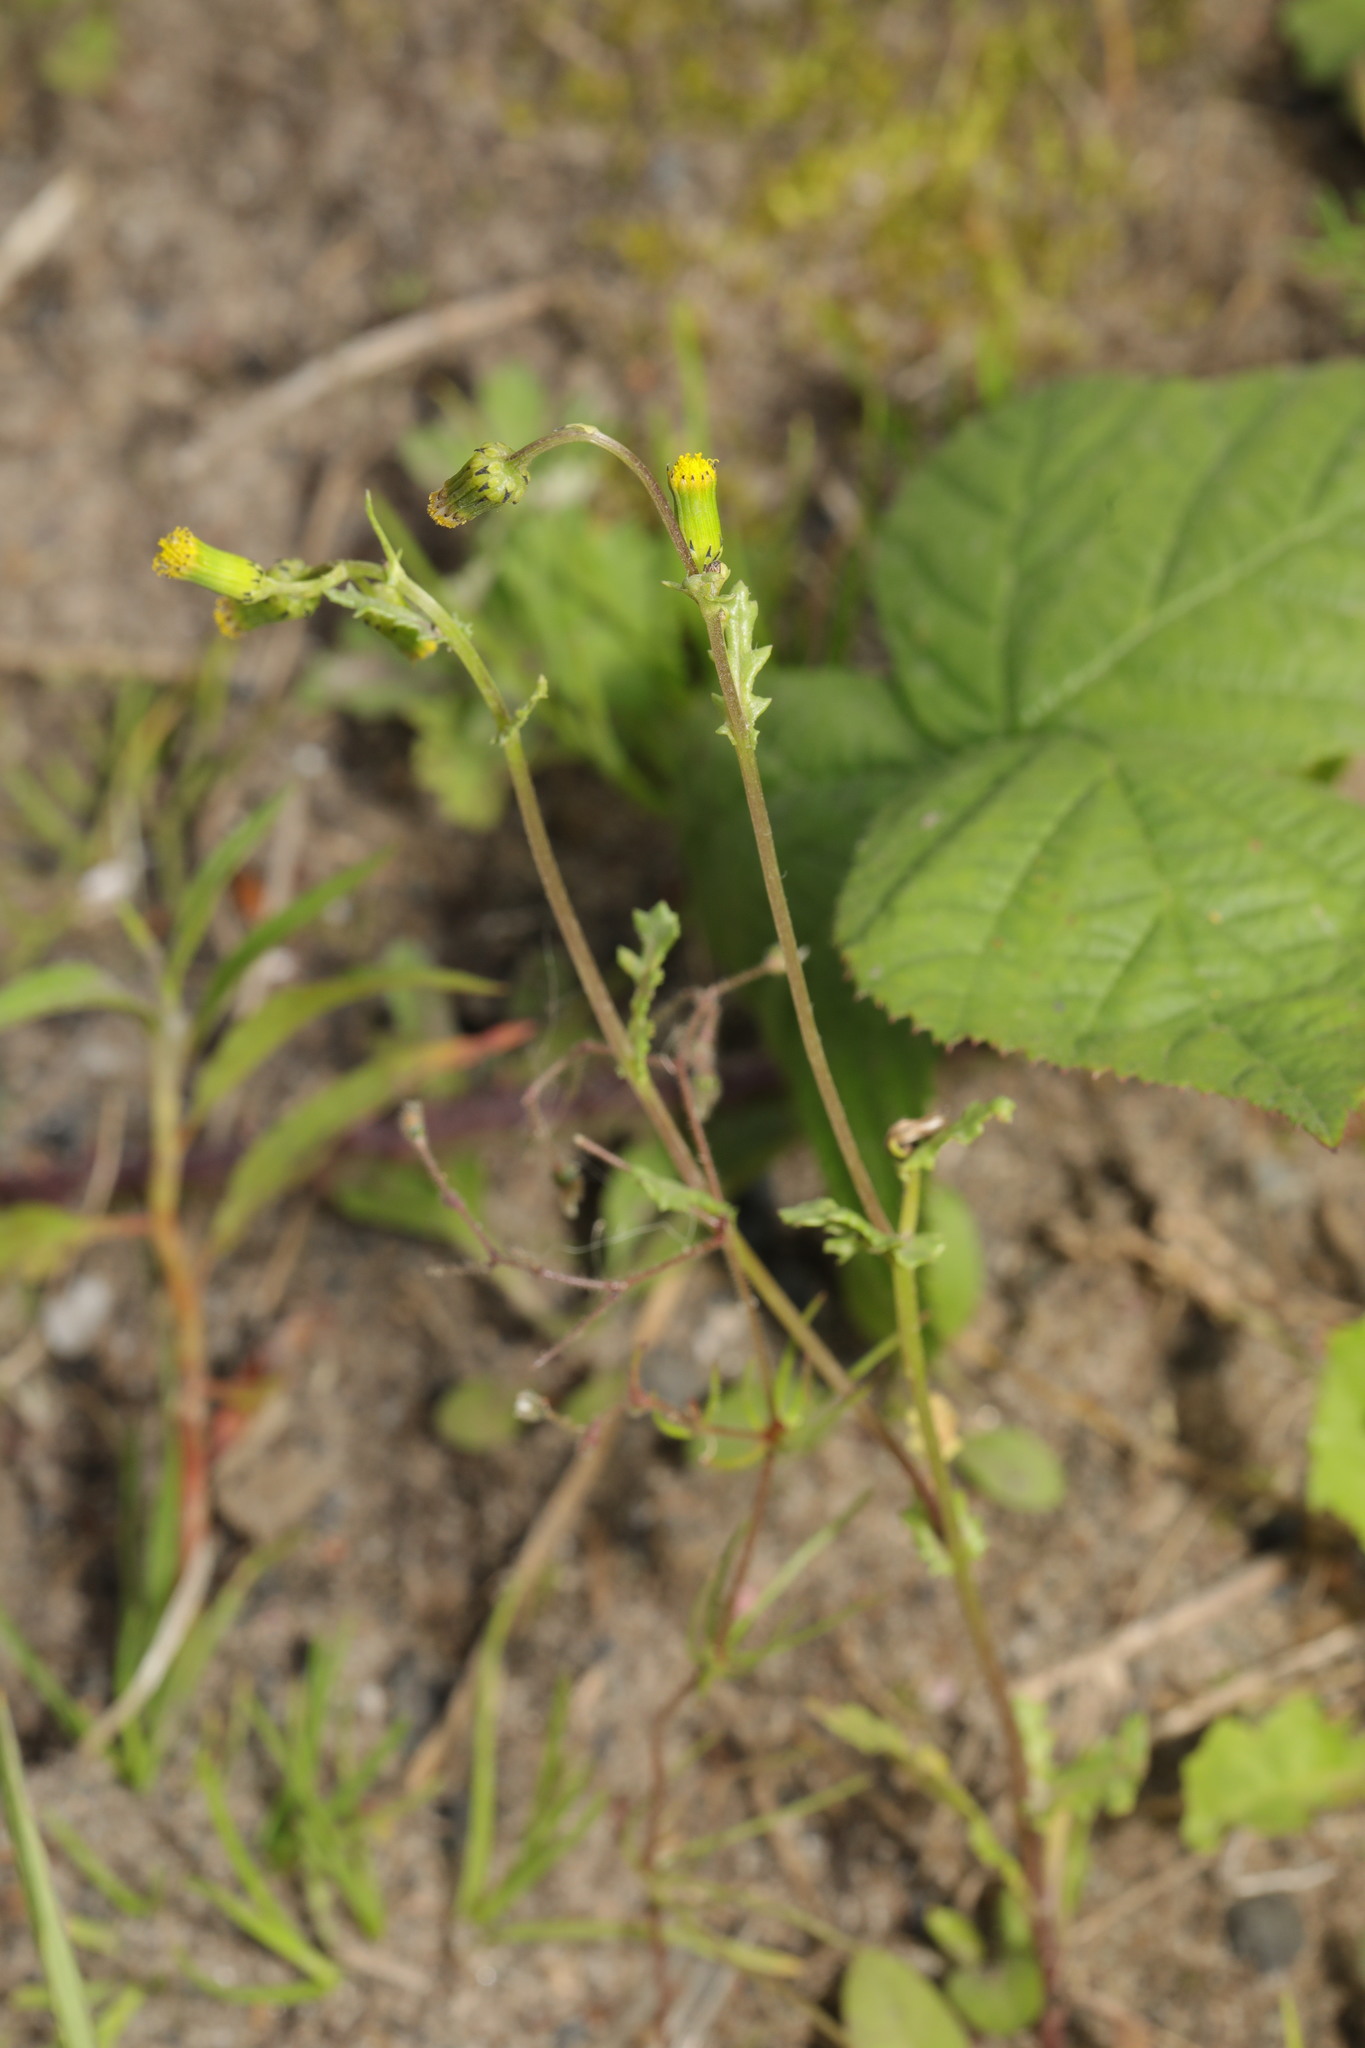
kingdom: Plantae
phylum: Tracheophyta
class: Magnoliopsida
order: Asterales
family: Asteraceae
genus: Senecio
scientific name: Senecio vulgaris
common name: Old-man-in-the-spring
